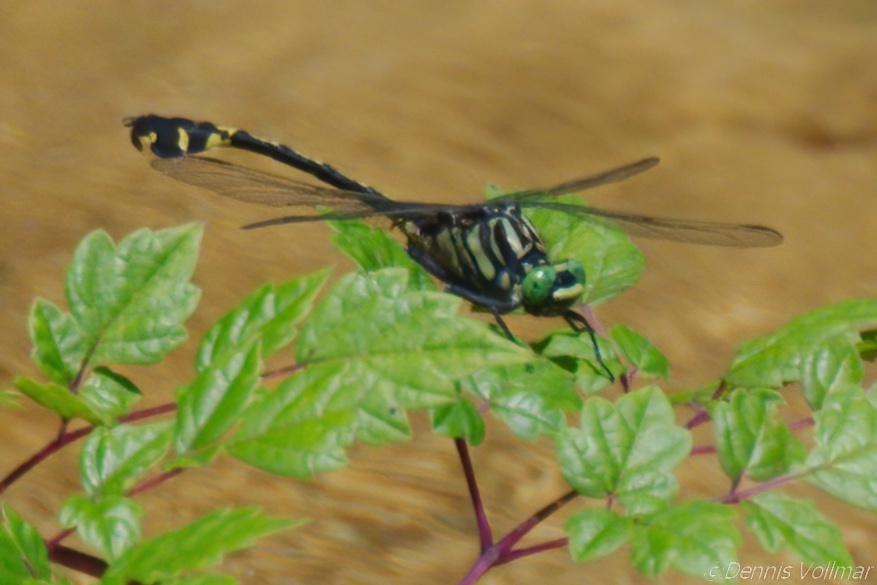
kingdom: Animalia
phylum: Arthropoda
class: Insecta
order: Odonata
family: Gomphidae
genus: Gomphurus
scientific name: Gomphurus dilatatus
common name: Blackwater clubtail
